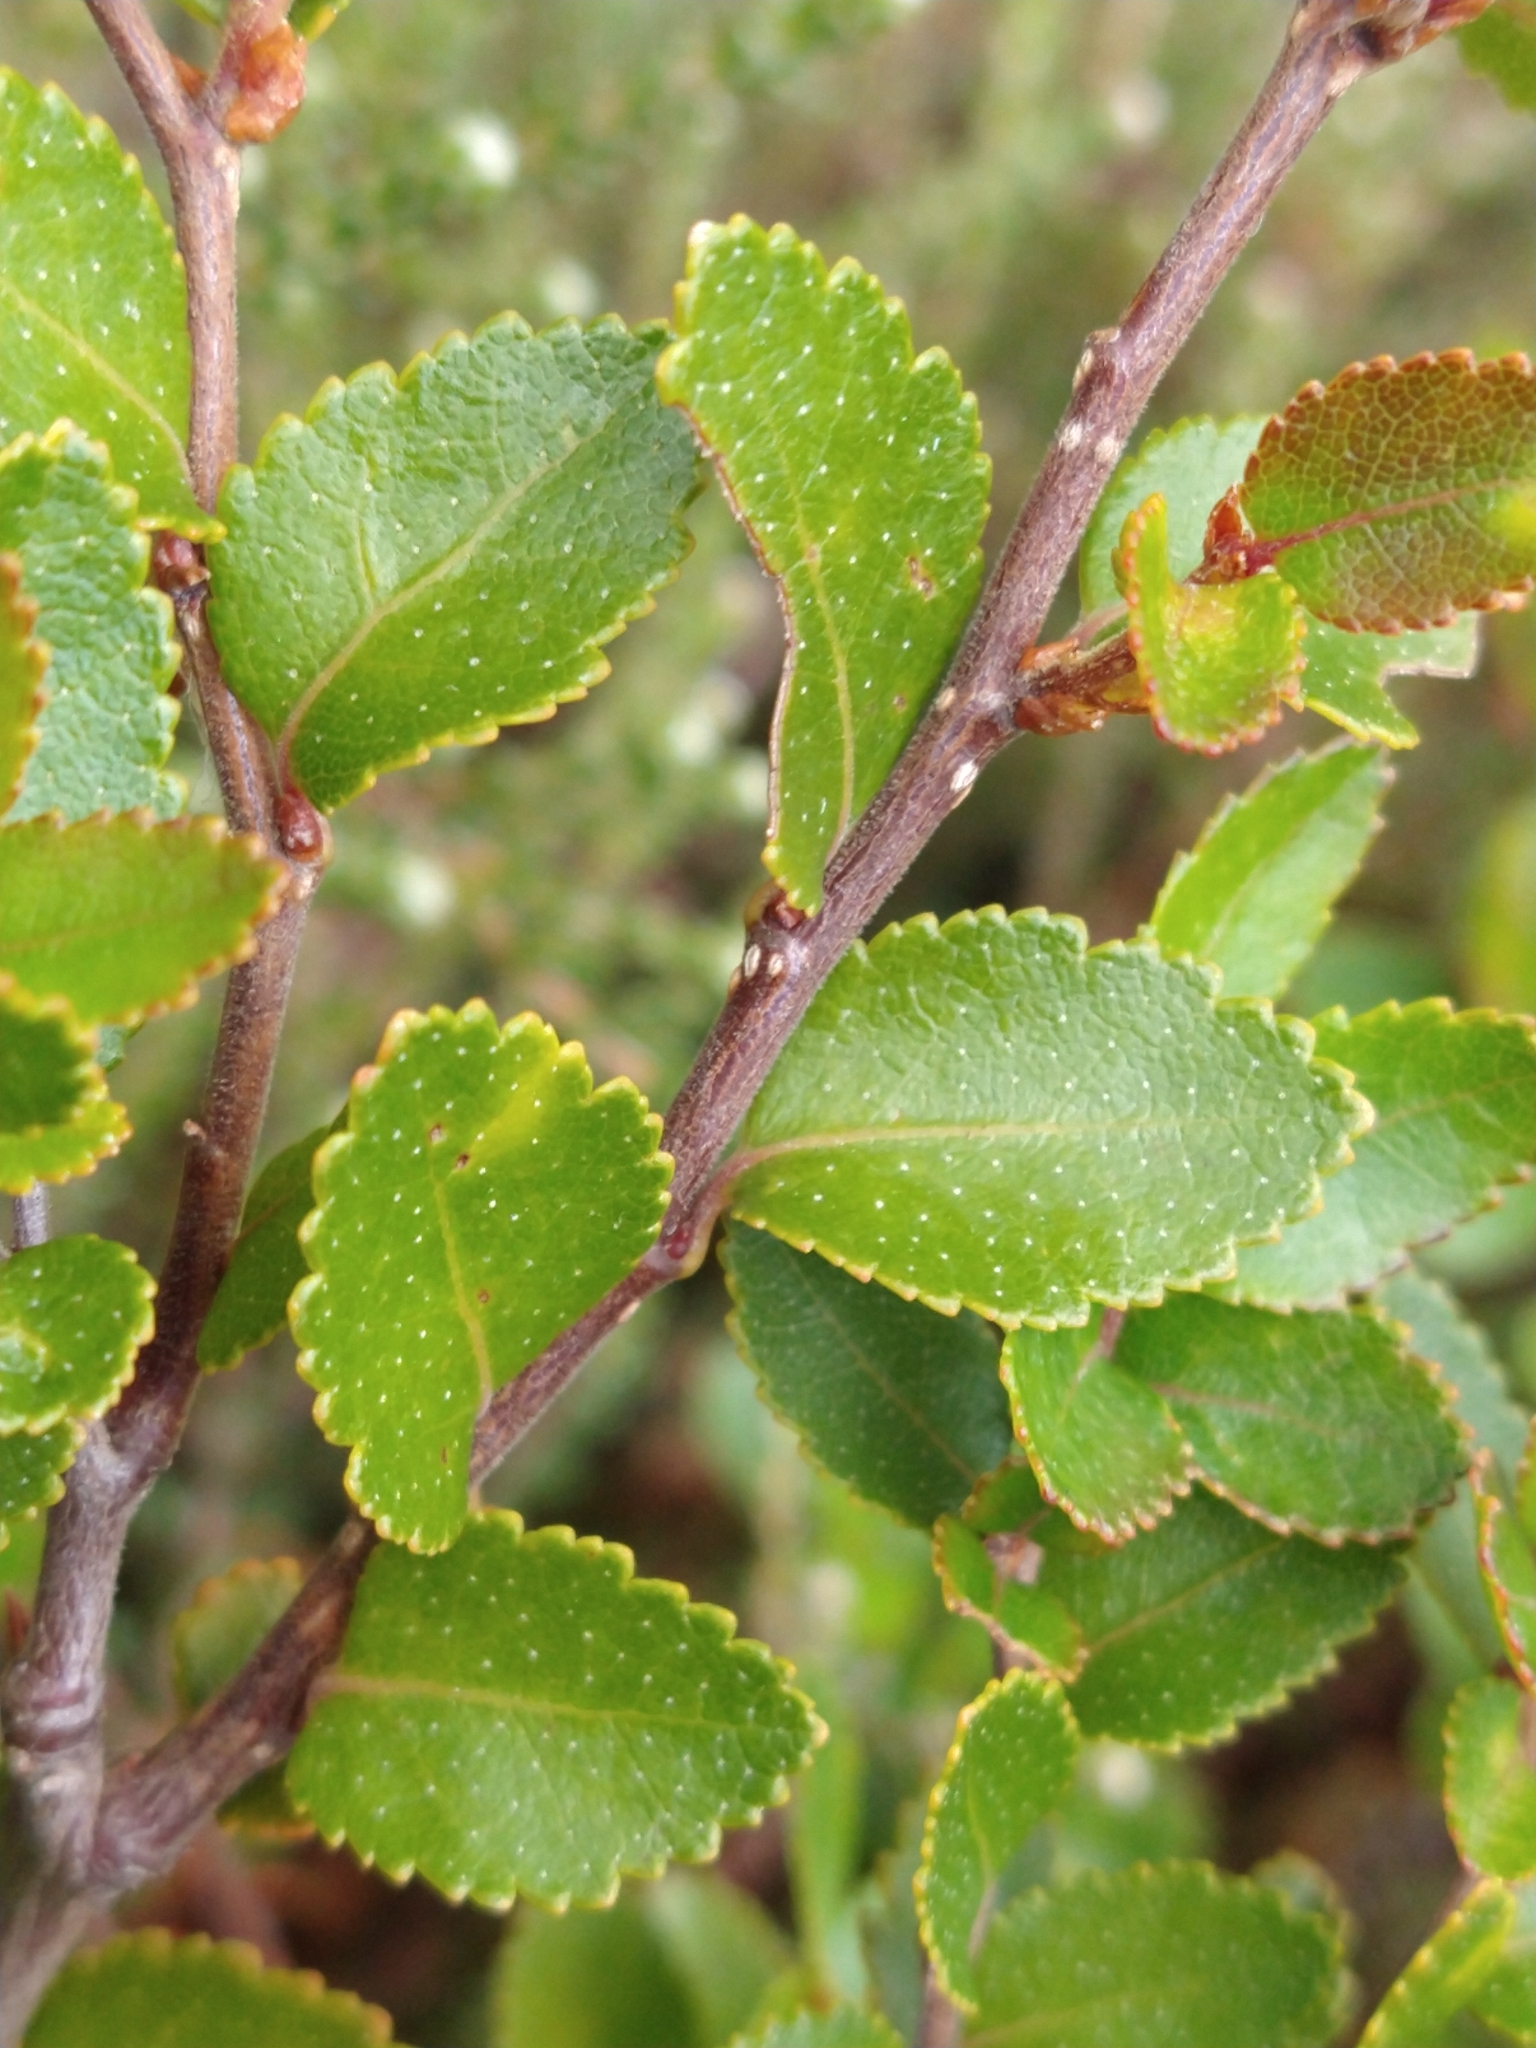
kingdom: Plantae
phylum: Tracheophyta
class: Magnoliopsida
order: Fagales
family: Nothofagaceae
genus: Nothofagus
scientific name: Nothofagus betuloides
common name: Magellan's beech
